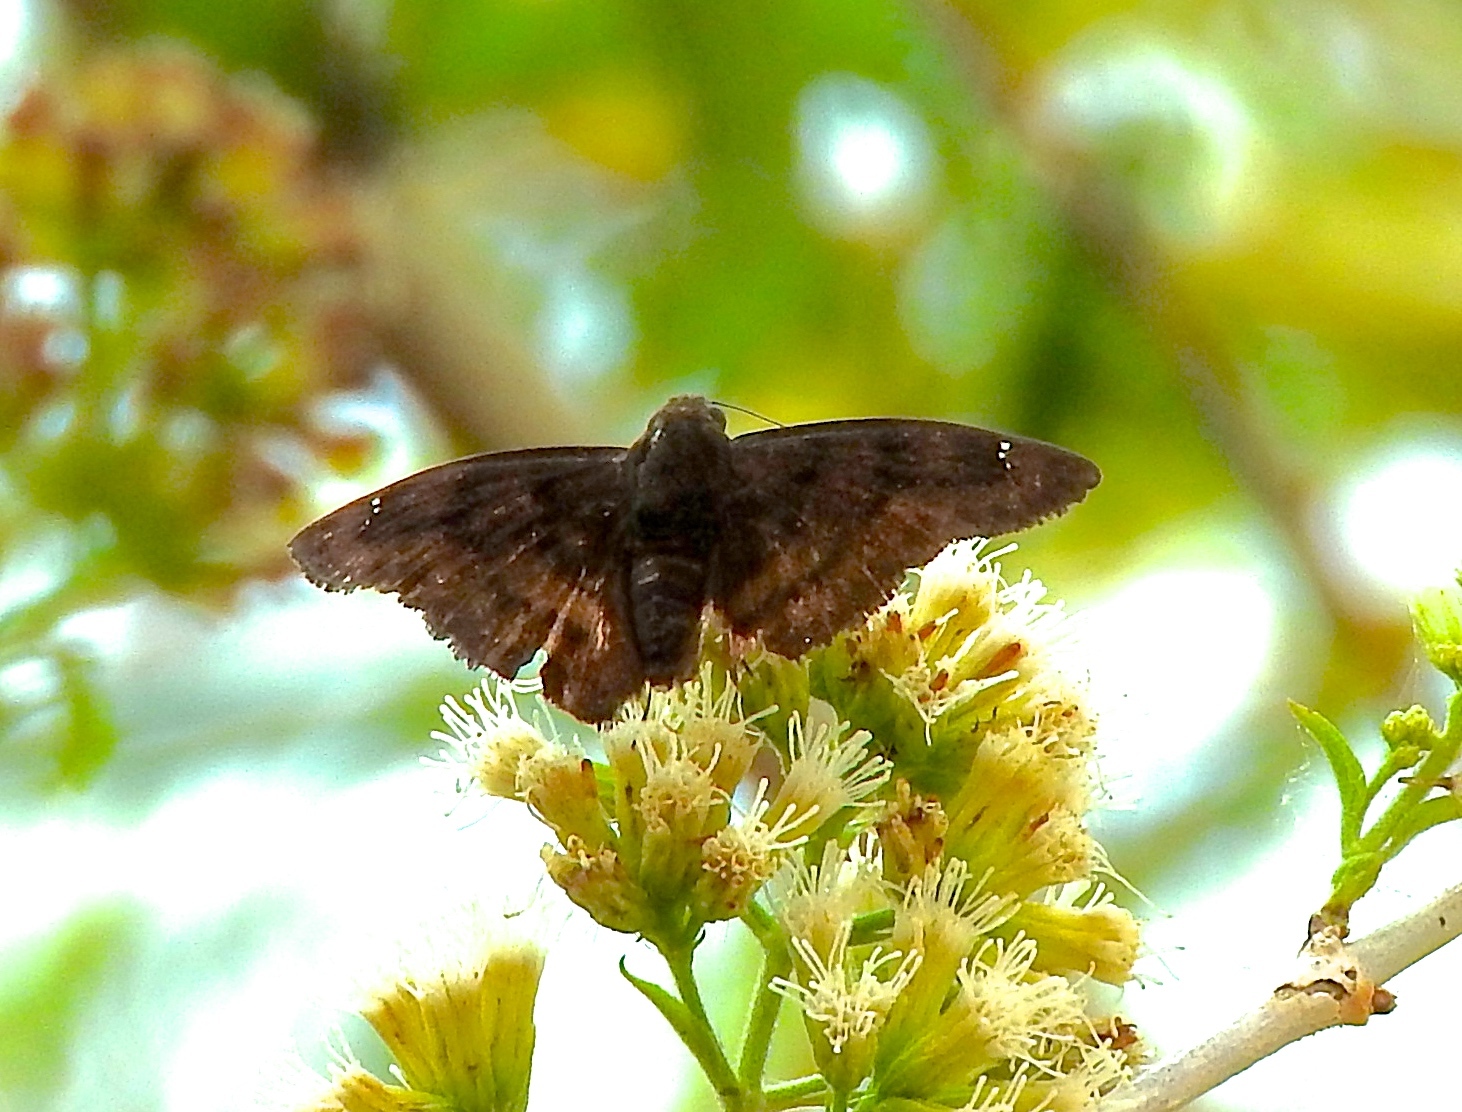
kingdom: Animalia
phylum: Arthropoda
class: Insecta
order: Lepidoptera
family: Hesperiidae
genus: Nisoniades
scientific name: Nisoniades
